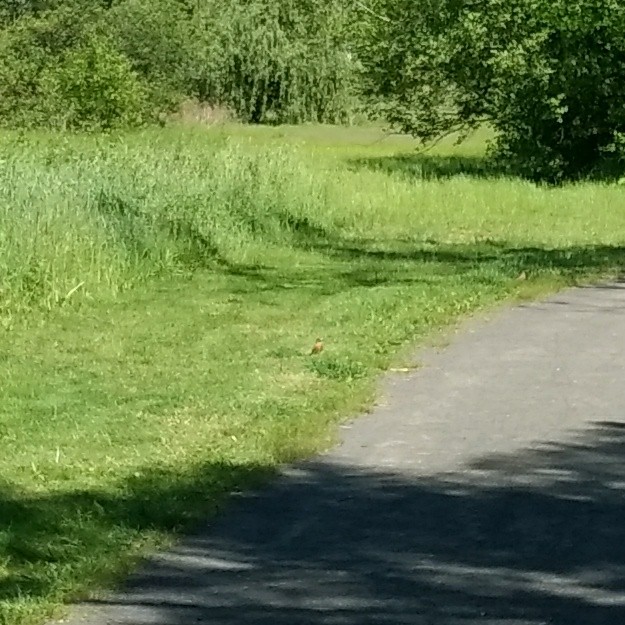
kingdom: Animalia
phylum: Chordata
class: Aves
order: Passeriformes
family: Turdidae
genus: Turdus
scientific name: Turdus migratorius
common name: American robin
